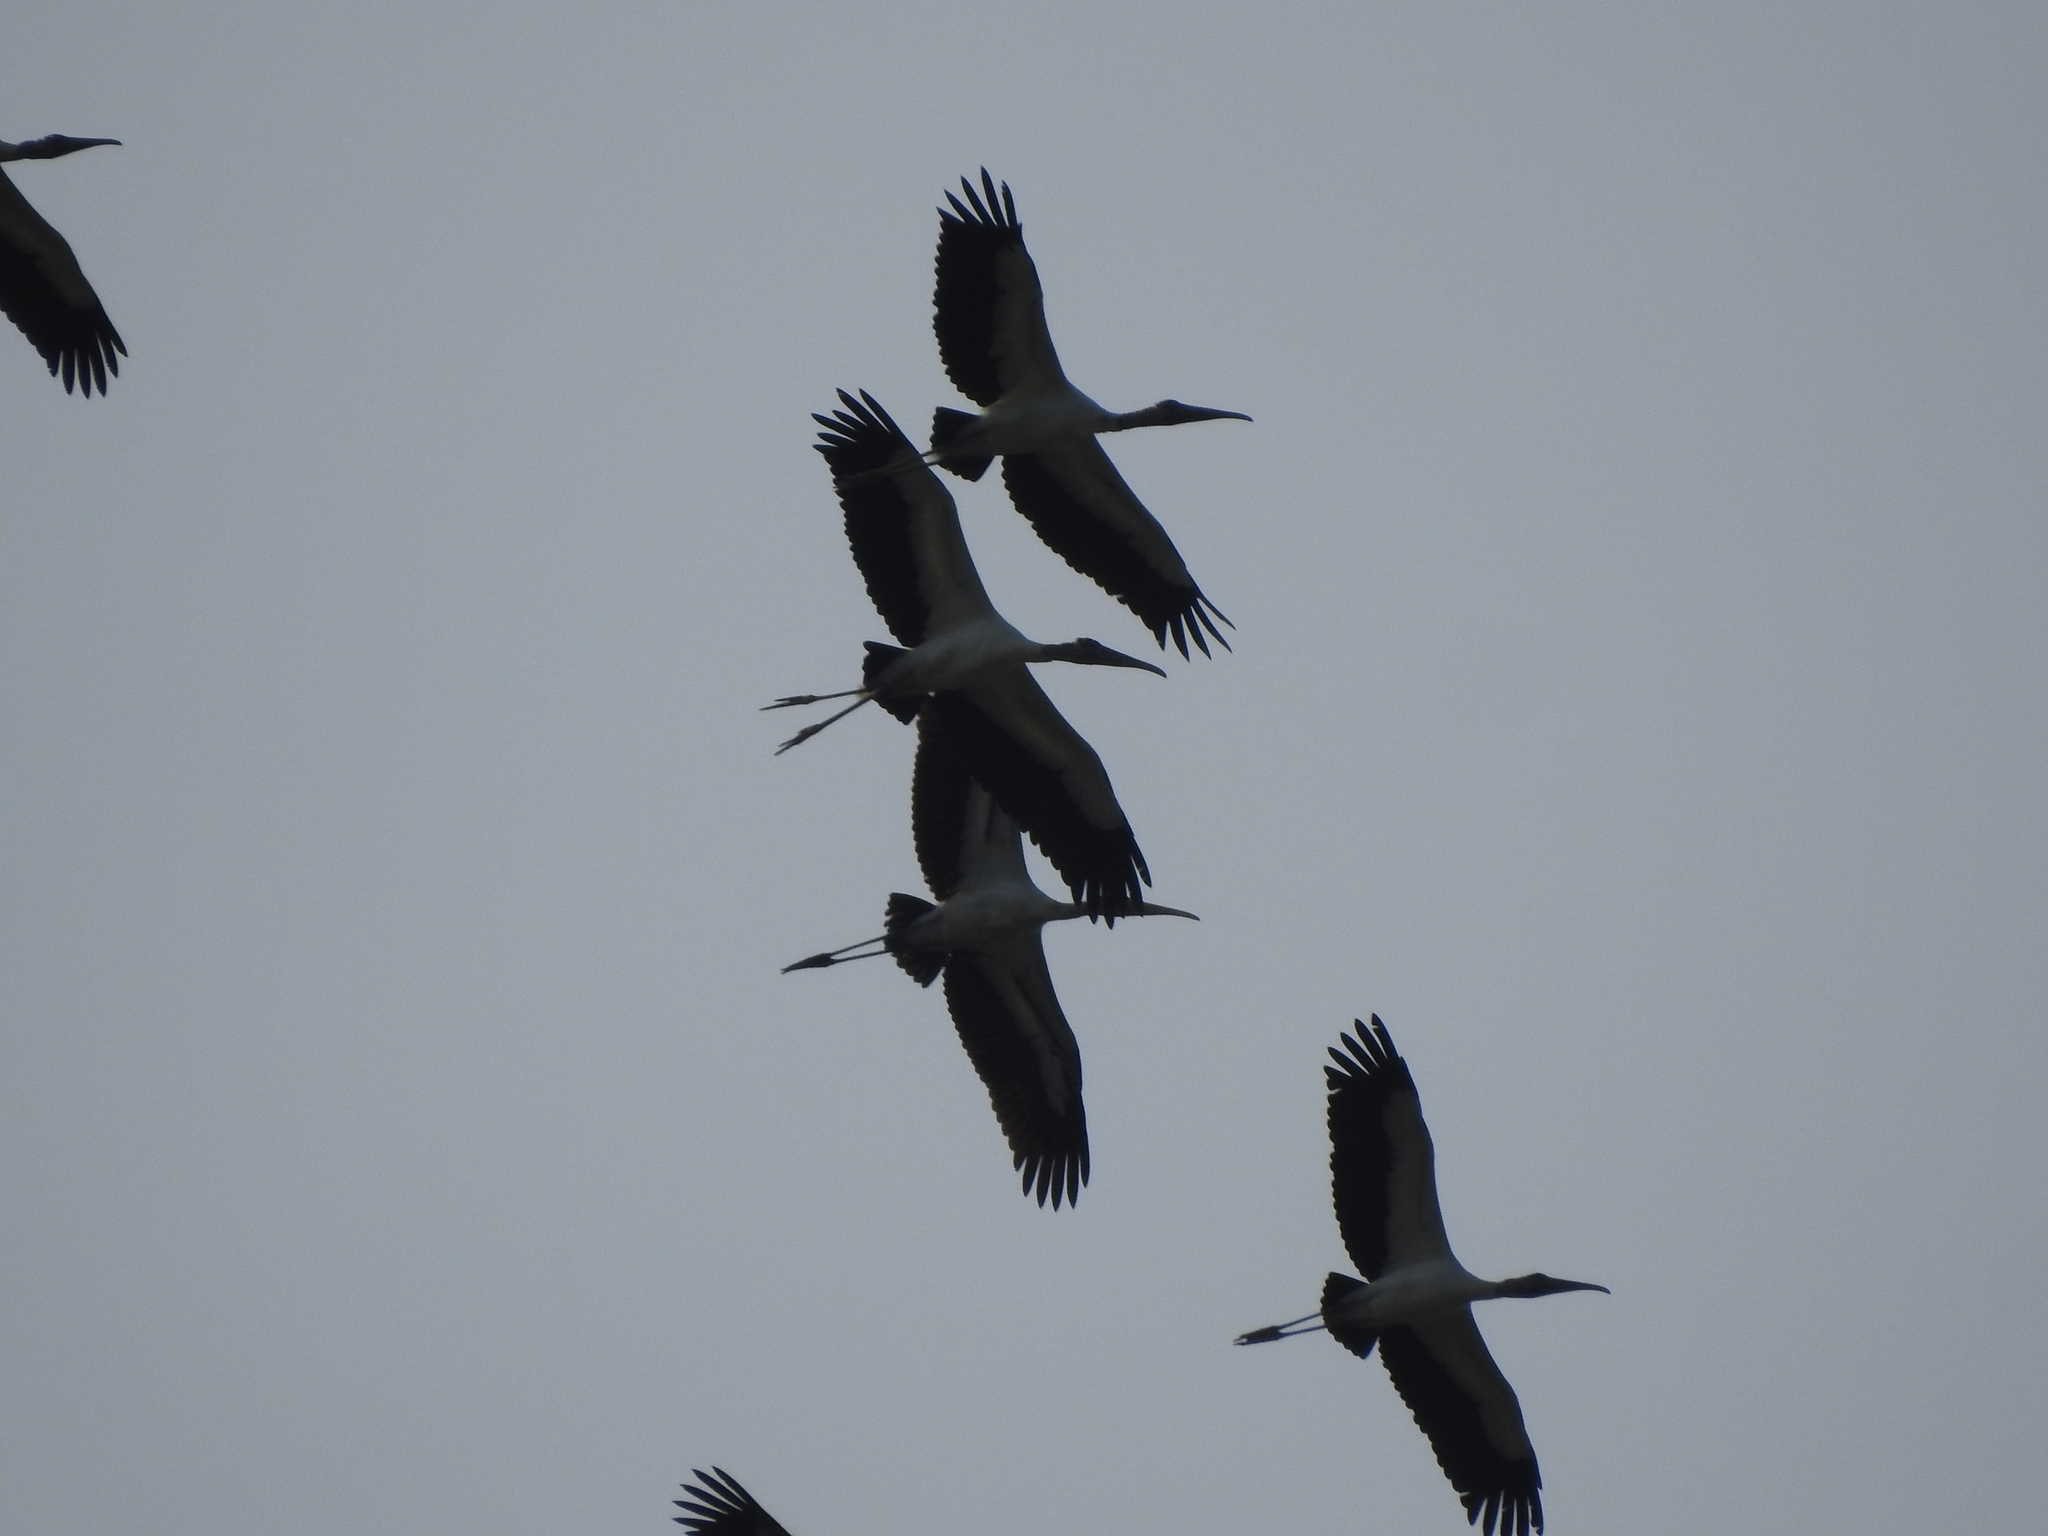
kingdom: Animalia
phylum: Chordata
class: Aves
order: Ciconiiformes
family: Ciconiidae
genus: Mycteria
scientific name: Mycteria americana
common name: Wood stork
